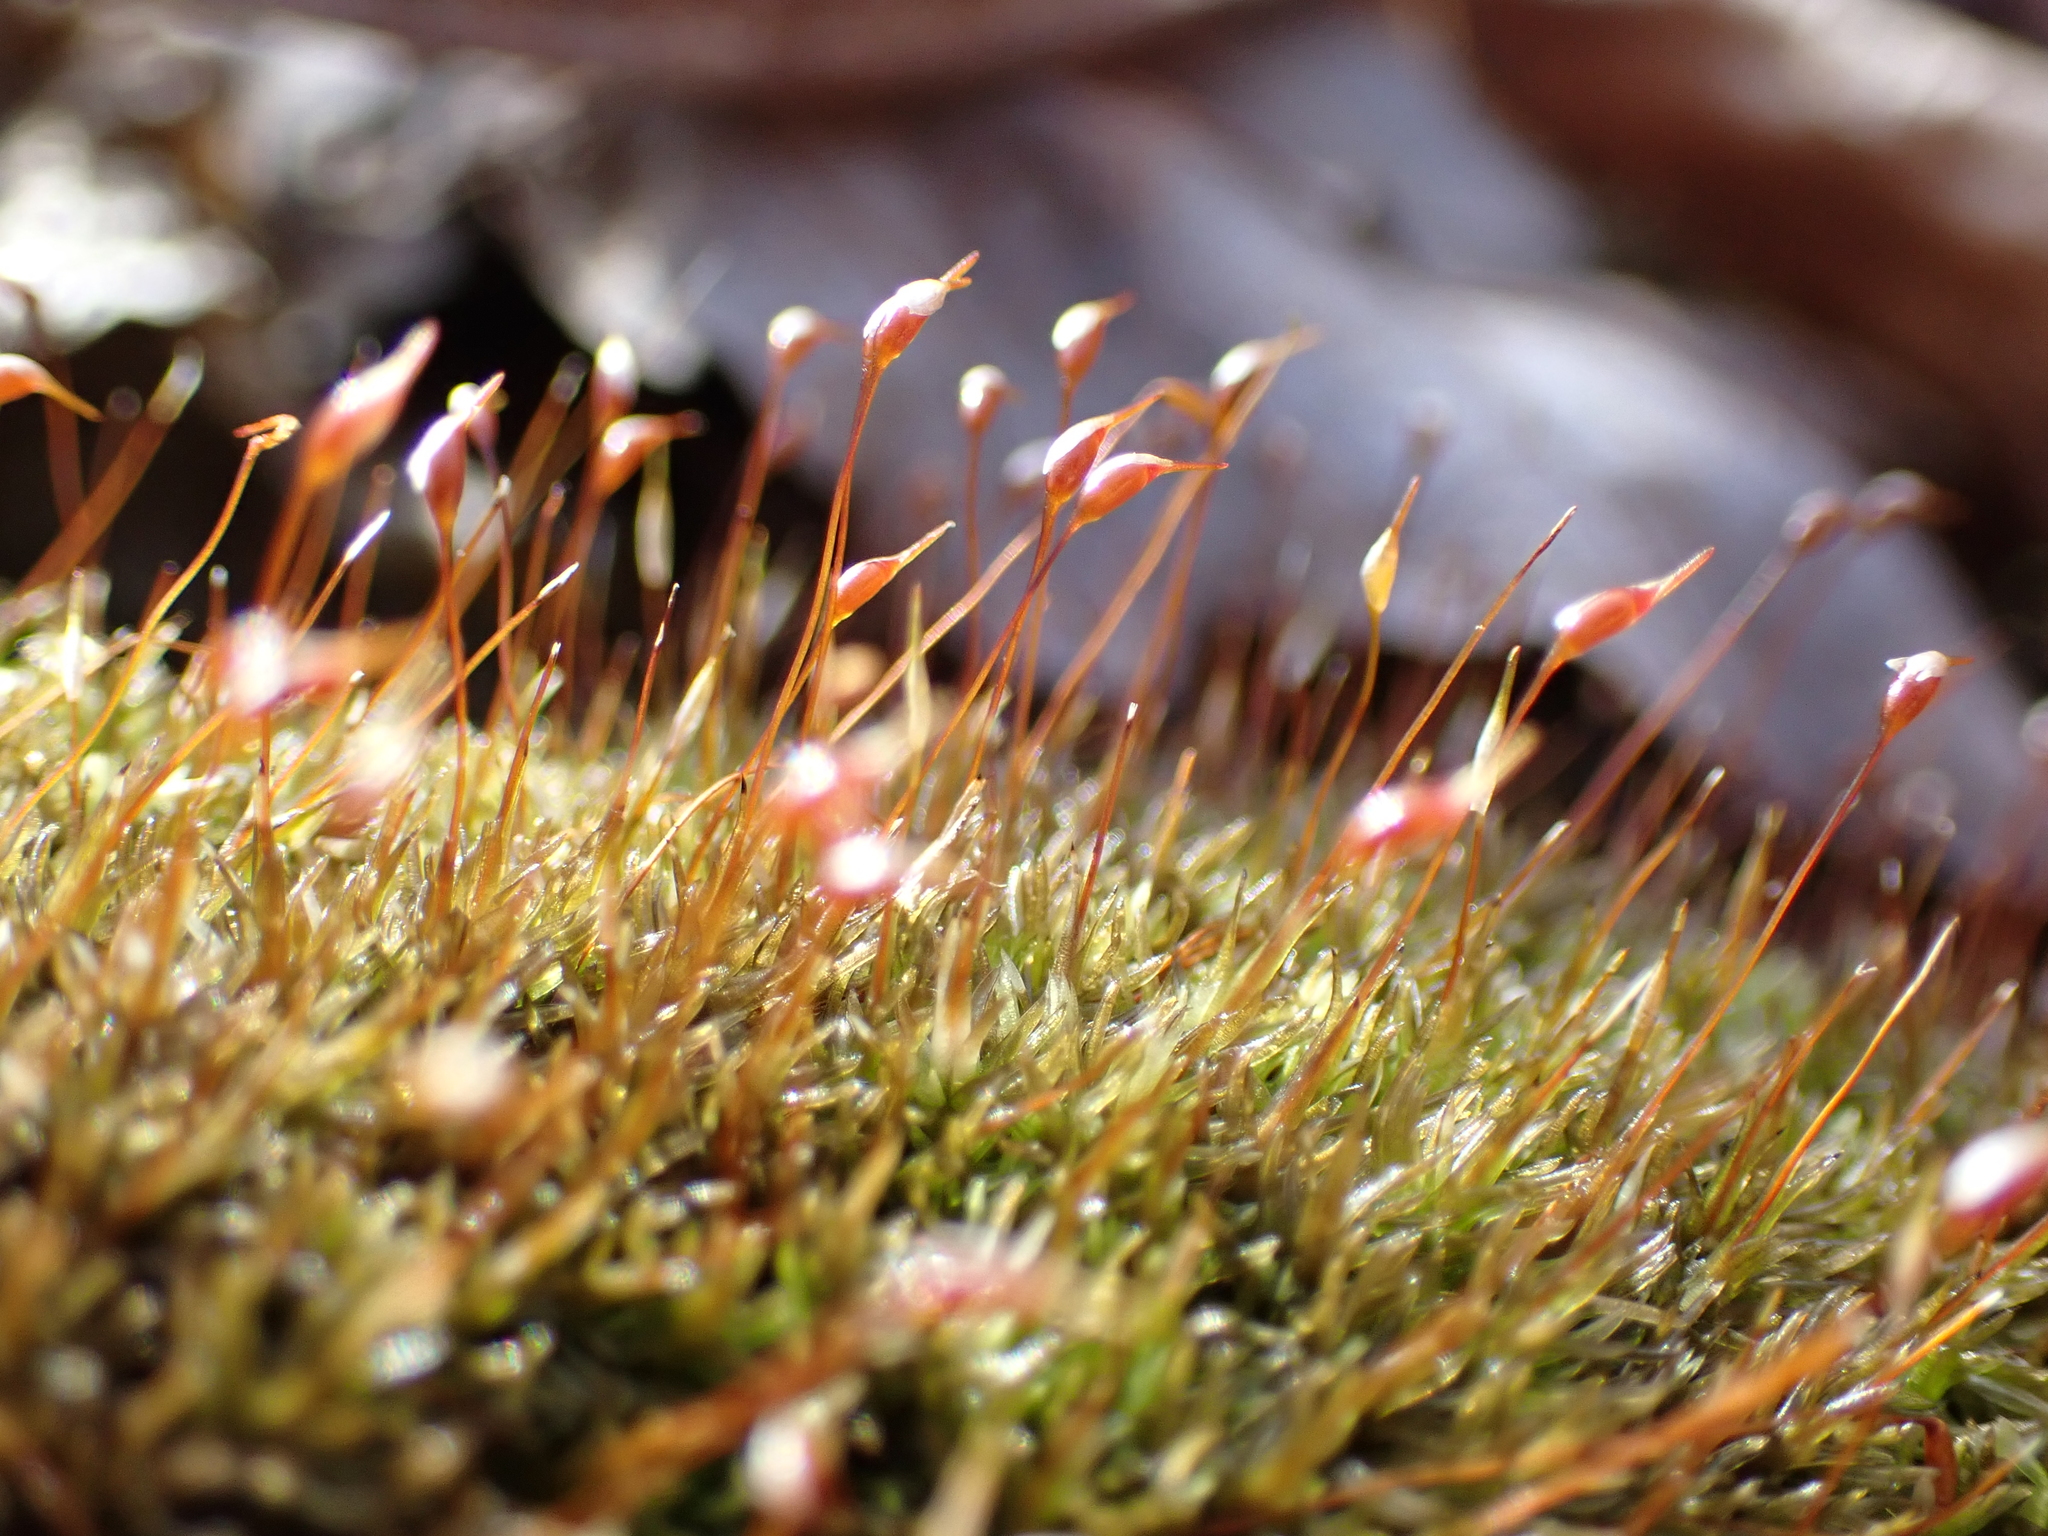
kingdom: Plantae
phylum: Bryophyta
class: Bryopsida
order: Dicranales
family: Leucobryaceae
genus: Leucobryum
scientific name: Leucobryum albidum
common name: White moss
